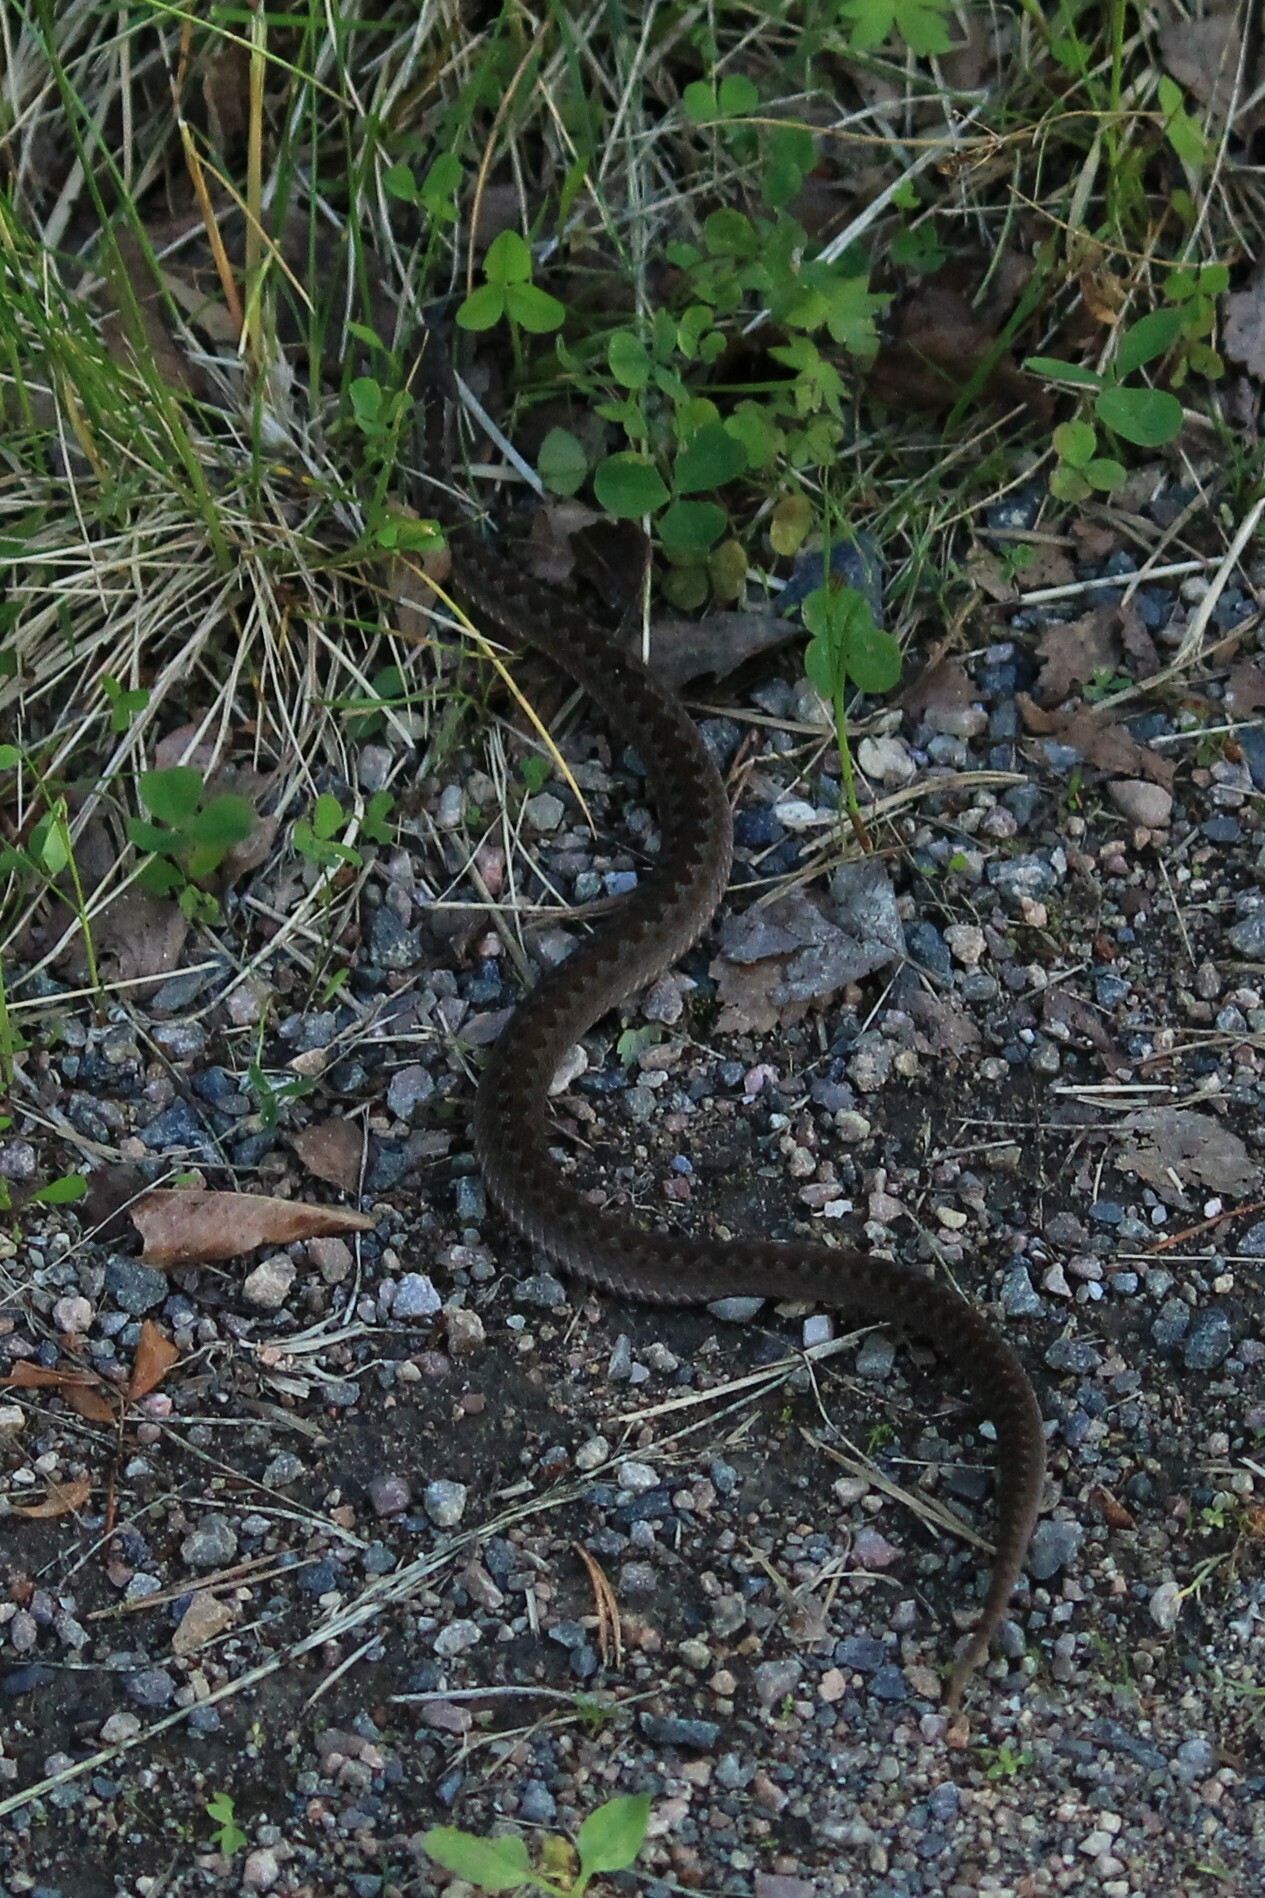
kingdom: Animalia
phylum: Chordata
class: Squamata
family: Viperidae
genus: Vipera
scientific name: Vipera berus
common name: Adder
